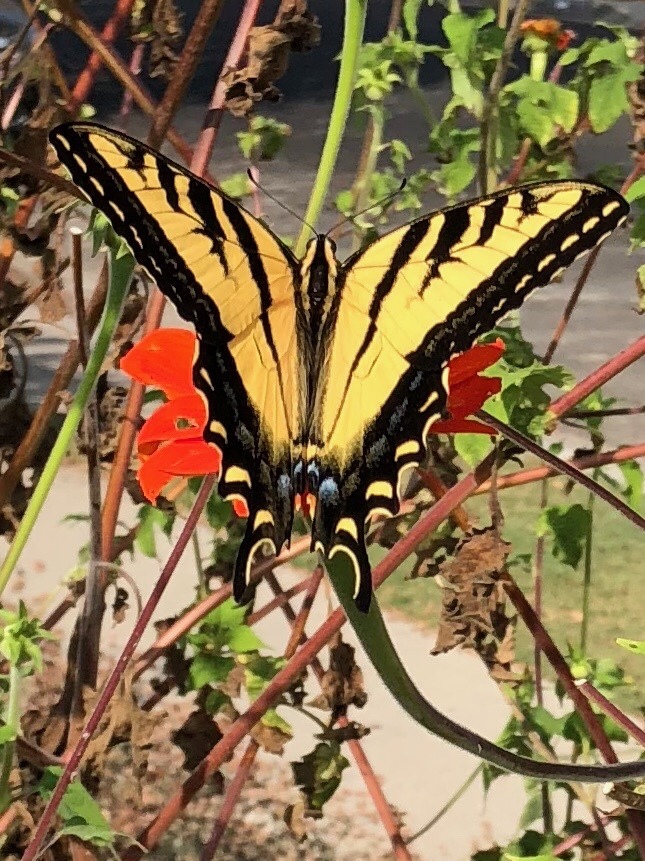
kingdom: Animalia
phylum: Arthropoda
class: Insecta
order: Lepidoptera
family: Papilionidae
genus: Papilio
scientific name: Papilio rutulus
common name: Western tiger swallowtail
